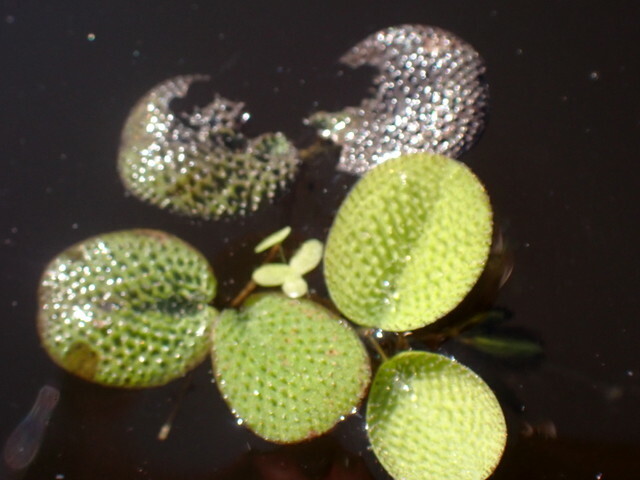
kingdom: Plantae
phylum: Tracheophyta
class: Polypodiopsida
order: Salviniales
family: Salviniaceae
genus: Salvinia
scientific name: Salvinia minima
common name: Water spangles
